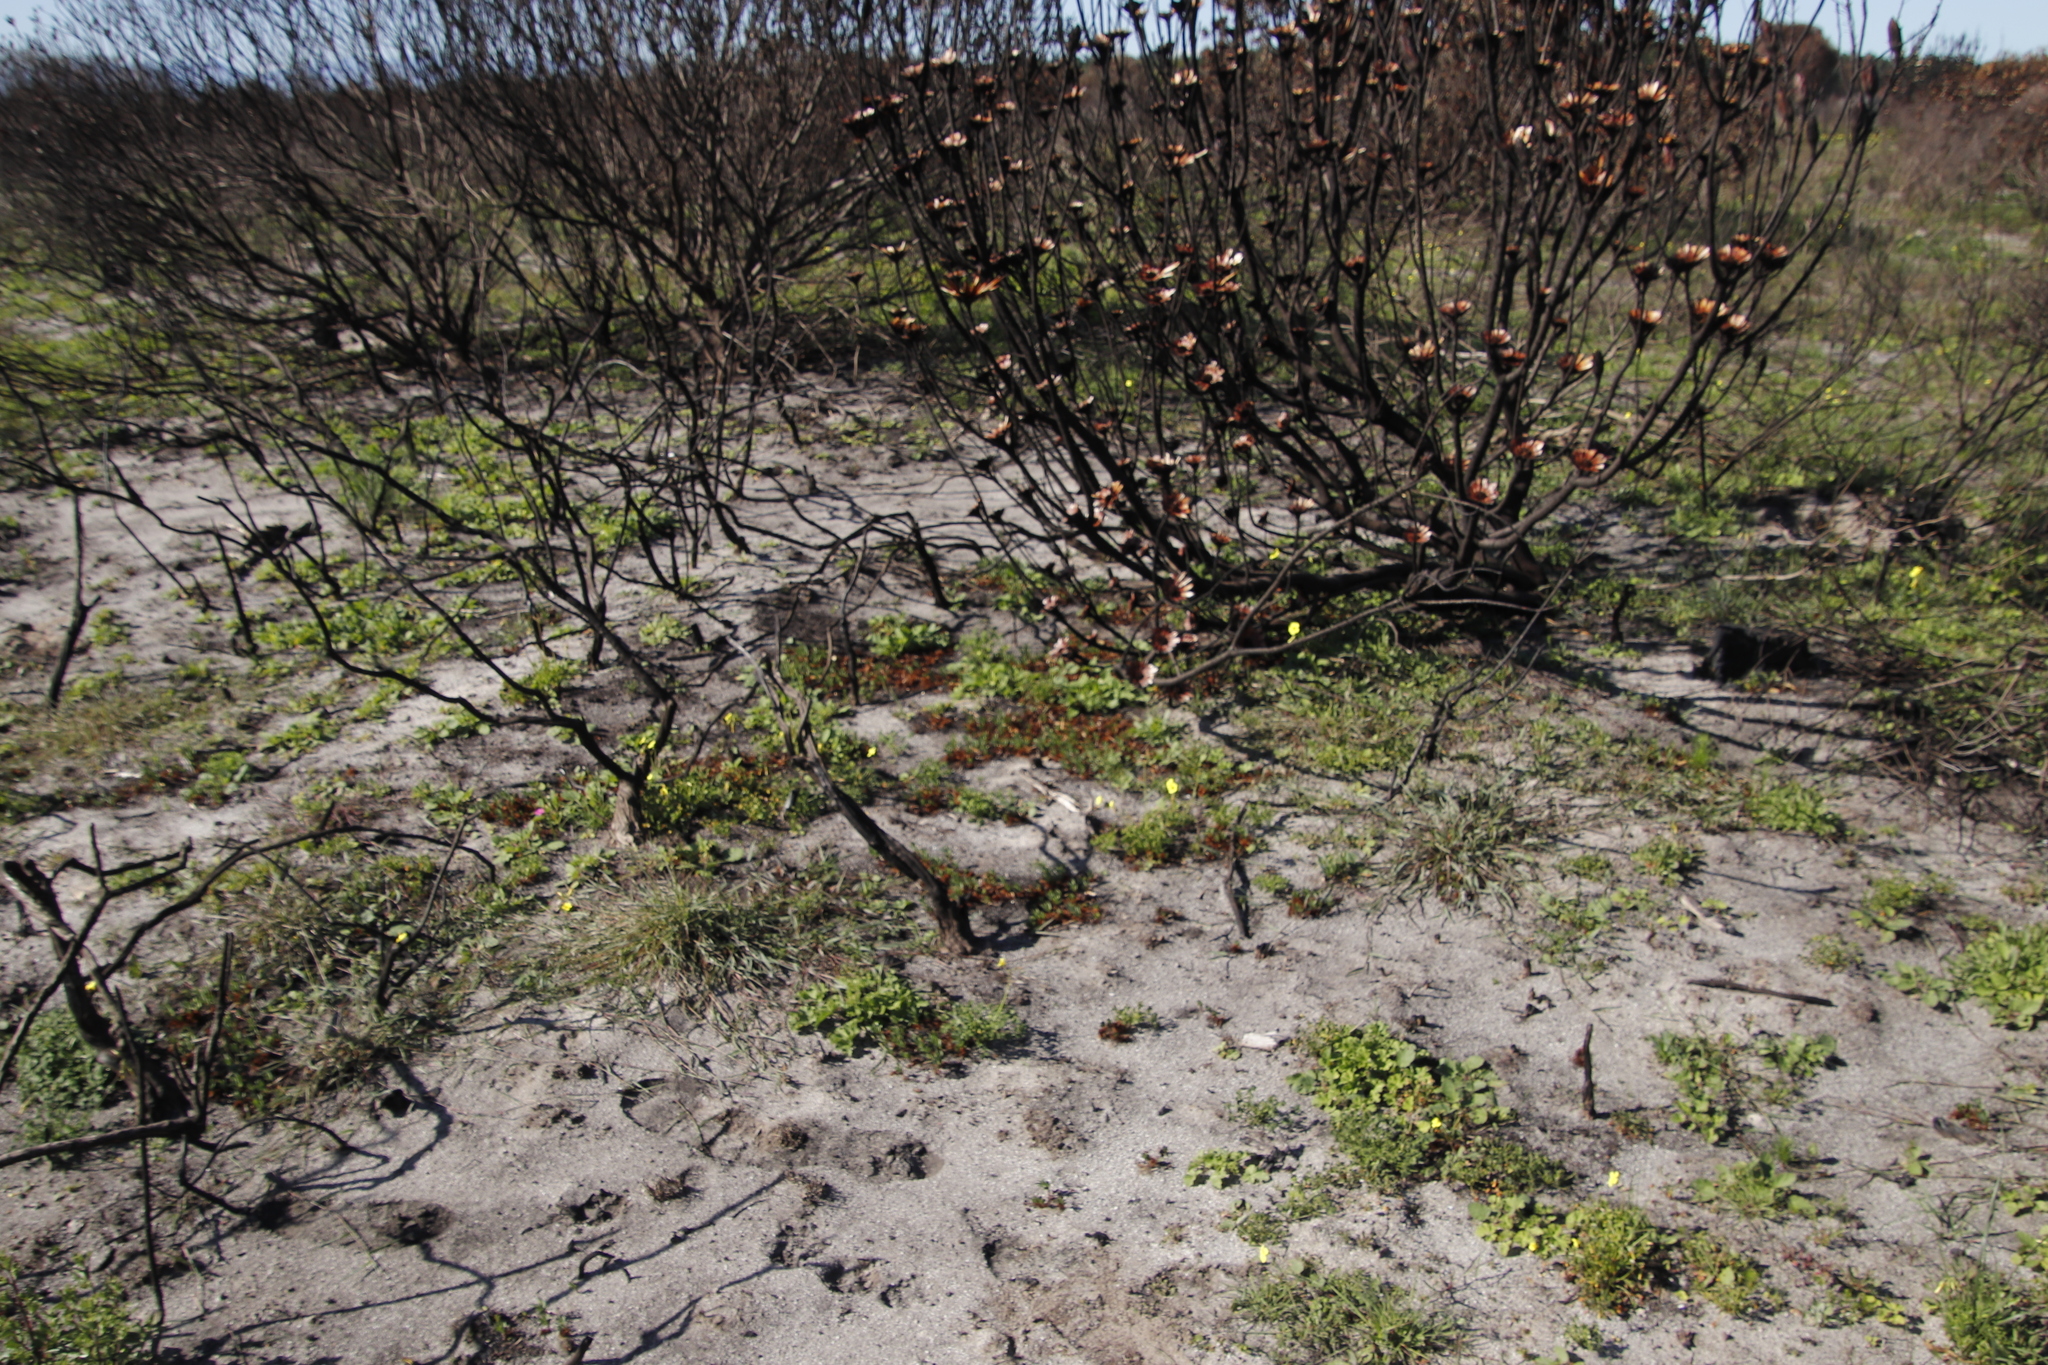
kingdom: Plantae
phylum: Tracheophyta
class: Magnoliopsida
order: Proteales
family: Proteaceae
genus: Protea
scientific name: Protea repens
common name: Sugarbush
